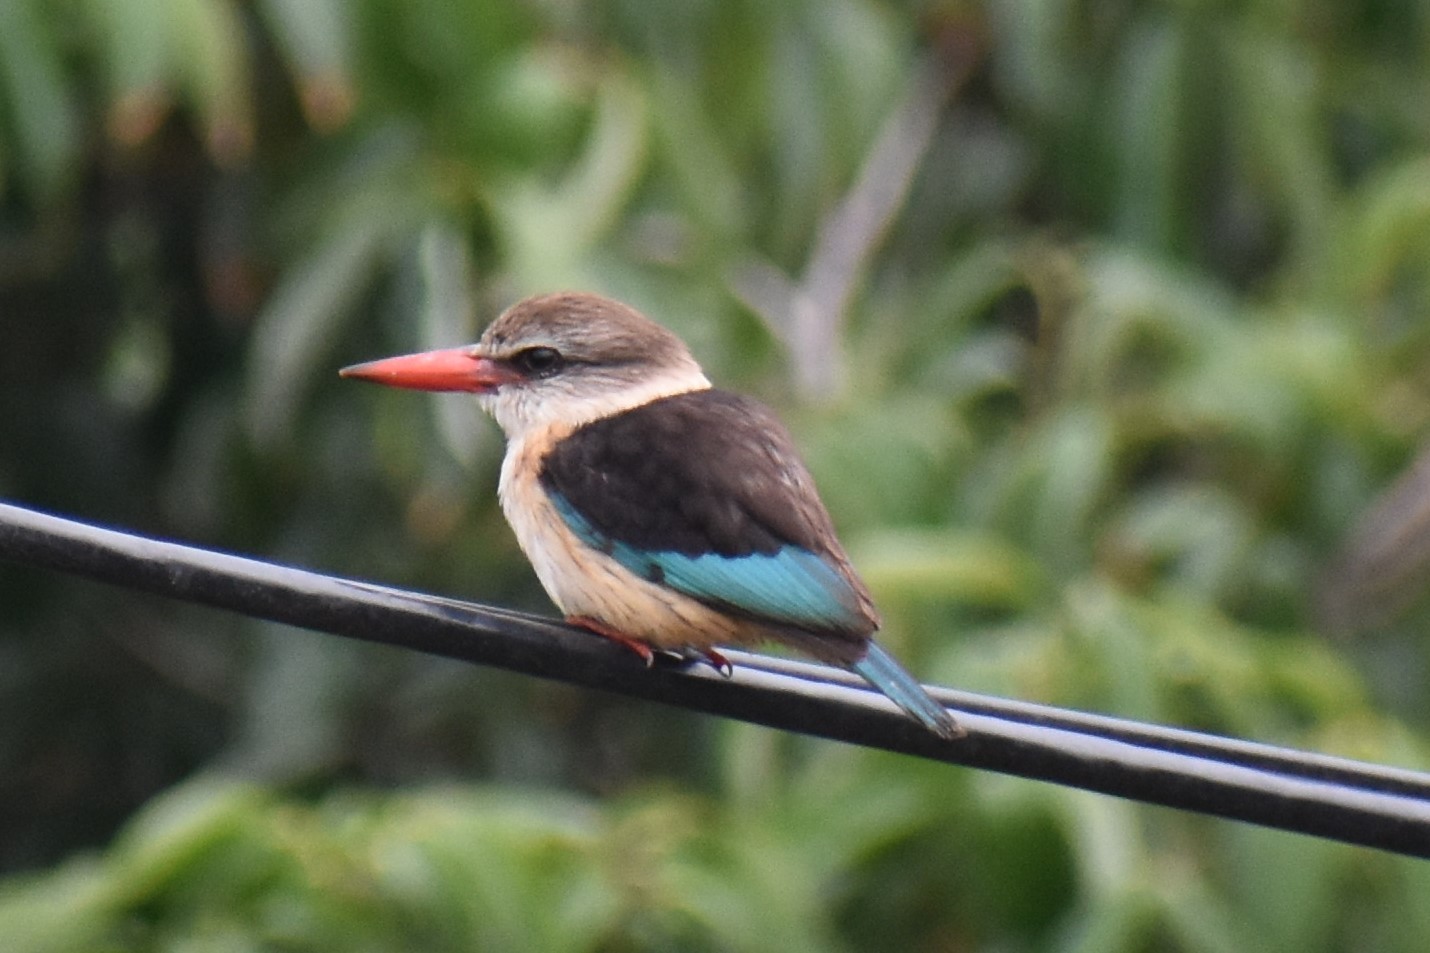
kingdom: Animalia
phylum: Chordata
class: Aves
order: Coraciiformes
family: Alcedinidae
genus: Halcyon
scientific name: Halcyon albiventris
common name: Brown-hooded kingfisher
